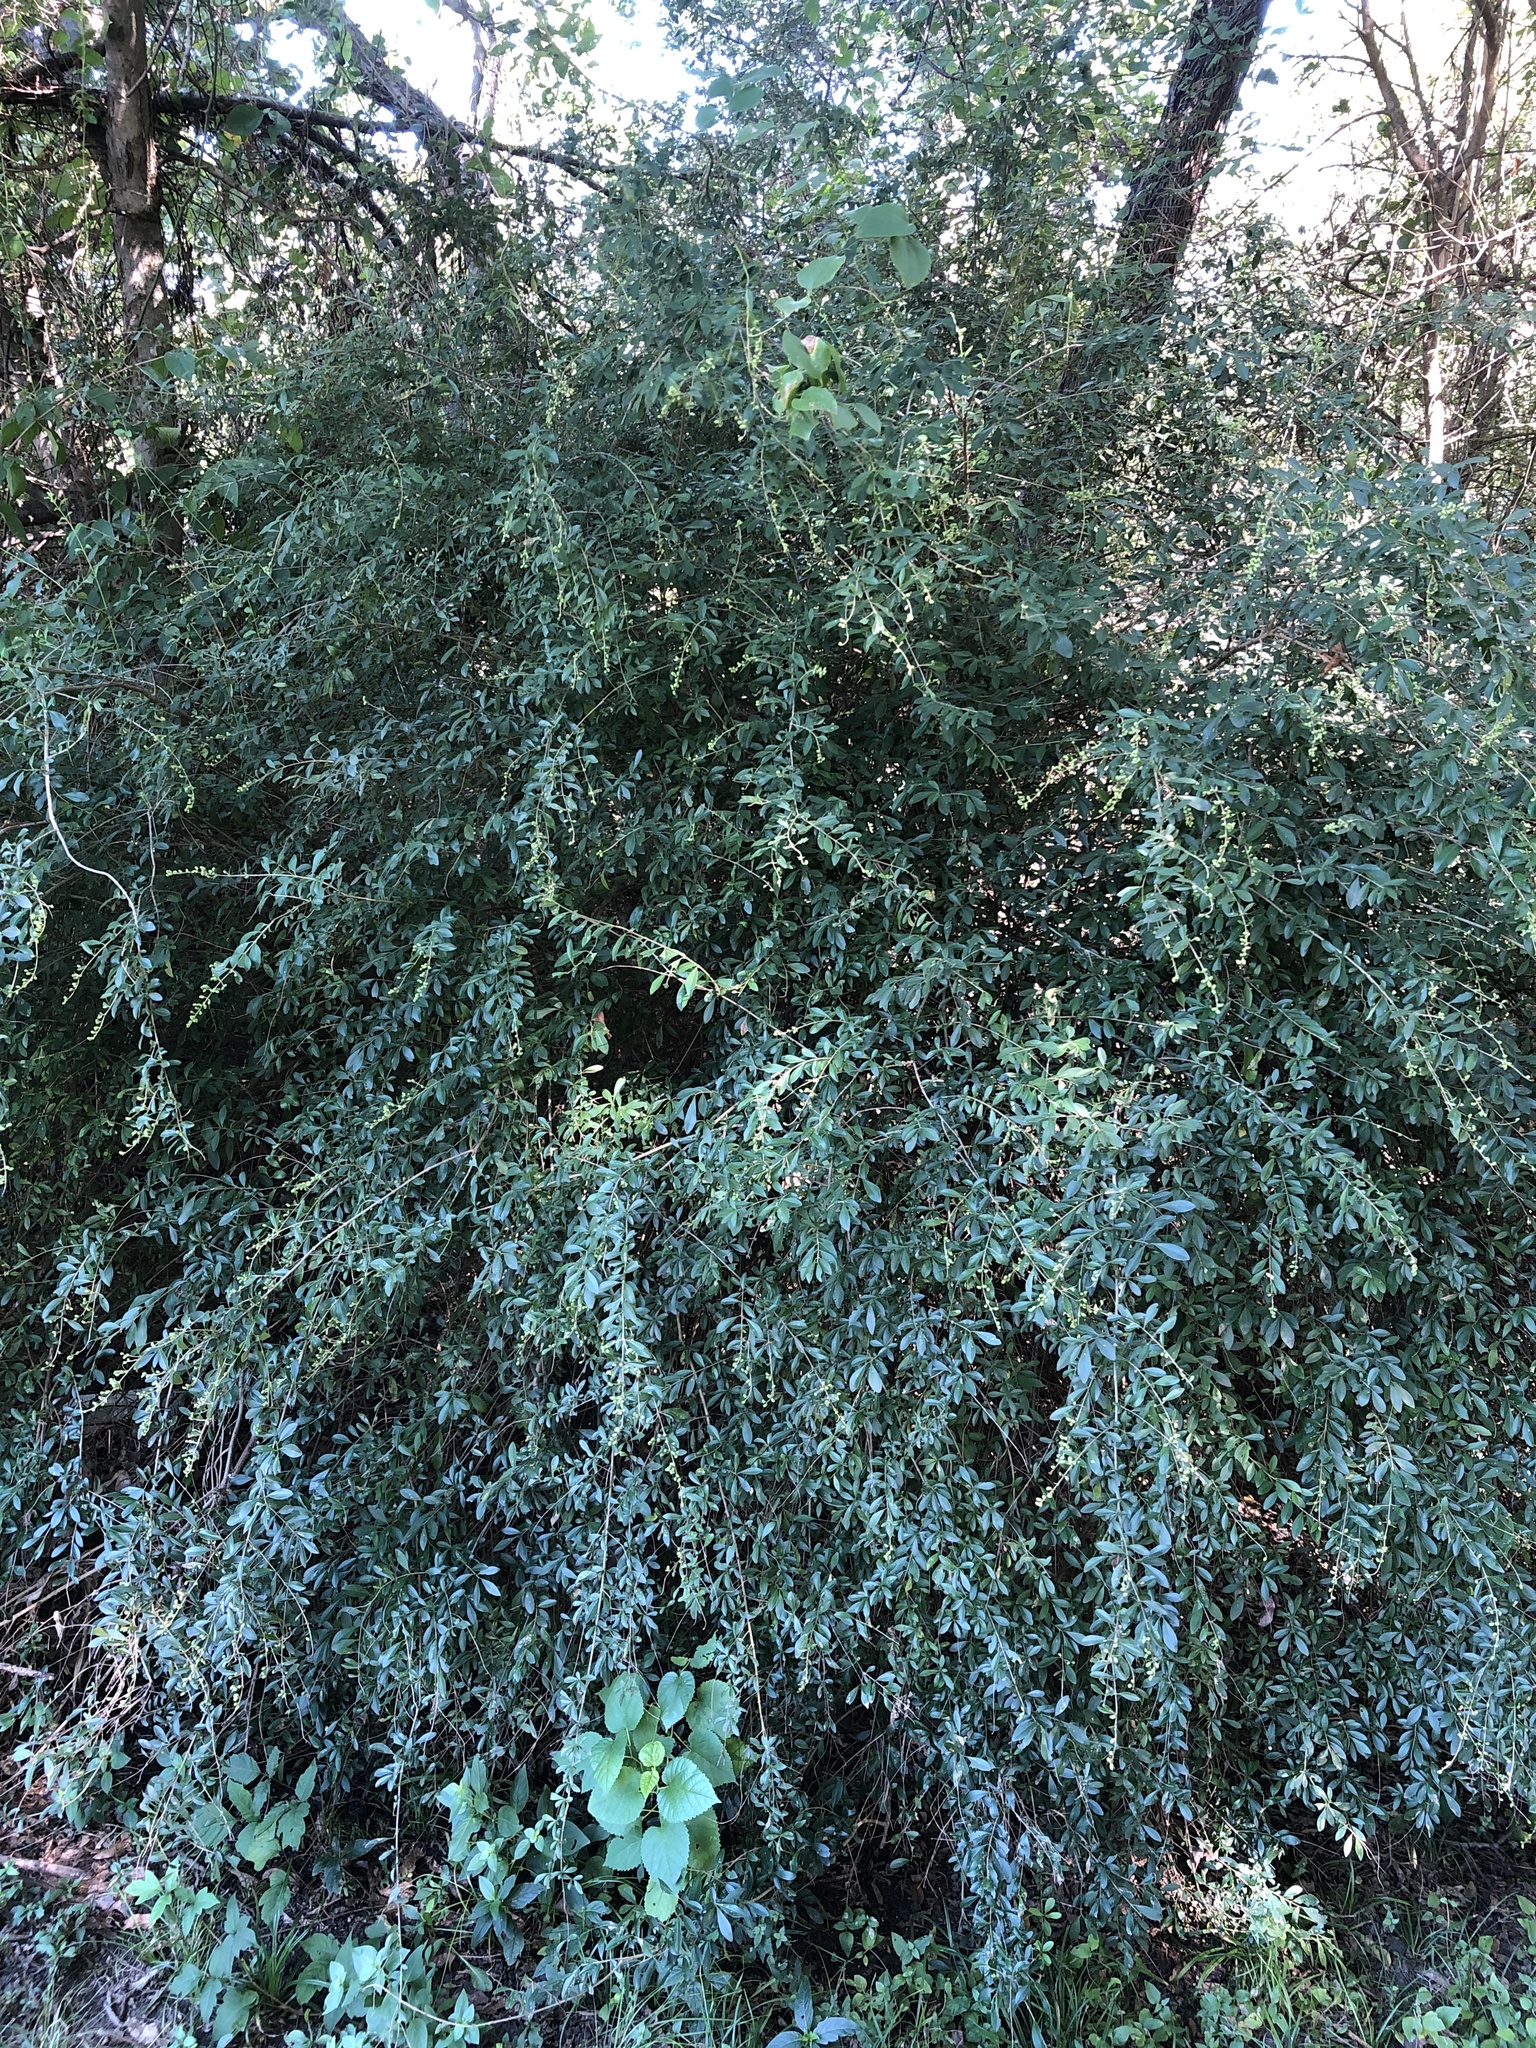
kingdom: Plantae
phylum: Tracheophyta
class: Magnoliopsida
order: Lamiales
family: Oleaceae
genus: Ligustrum
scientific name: Ligustrum quihoui
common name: Waxyleaf privet
